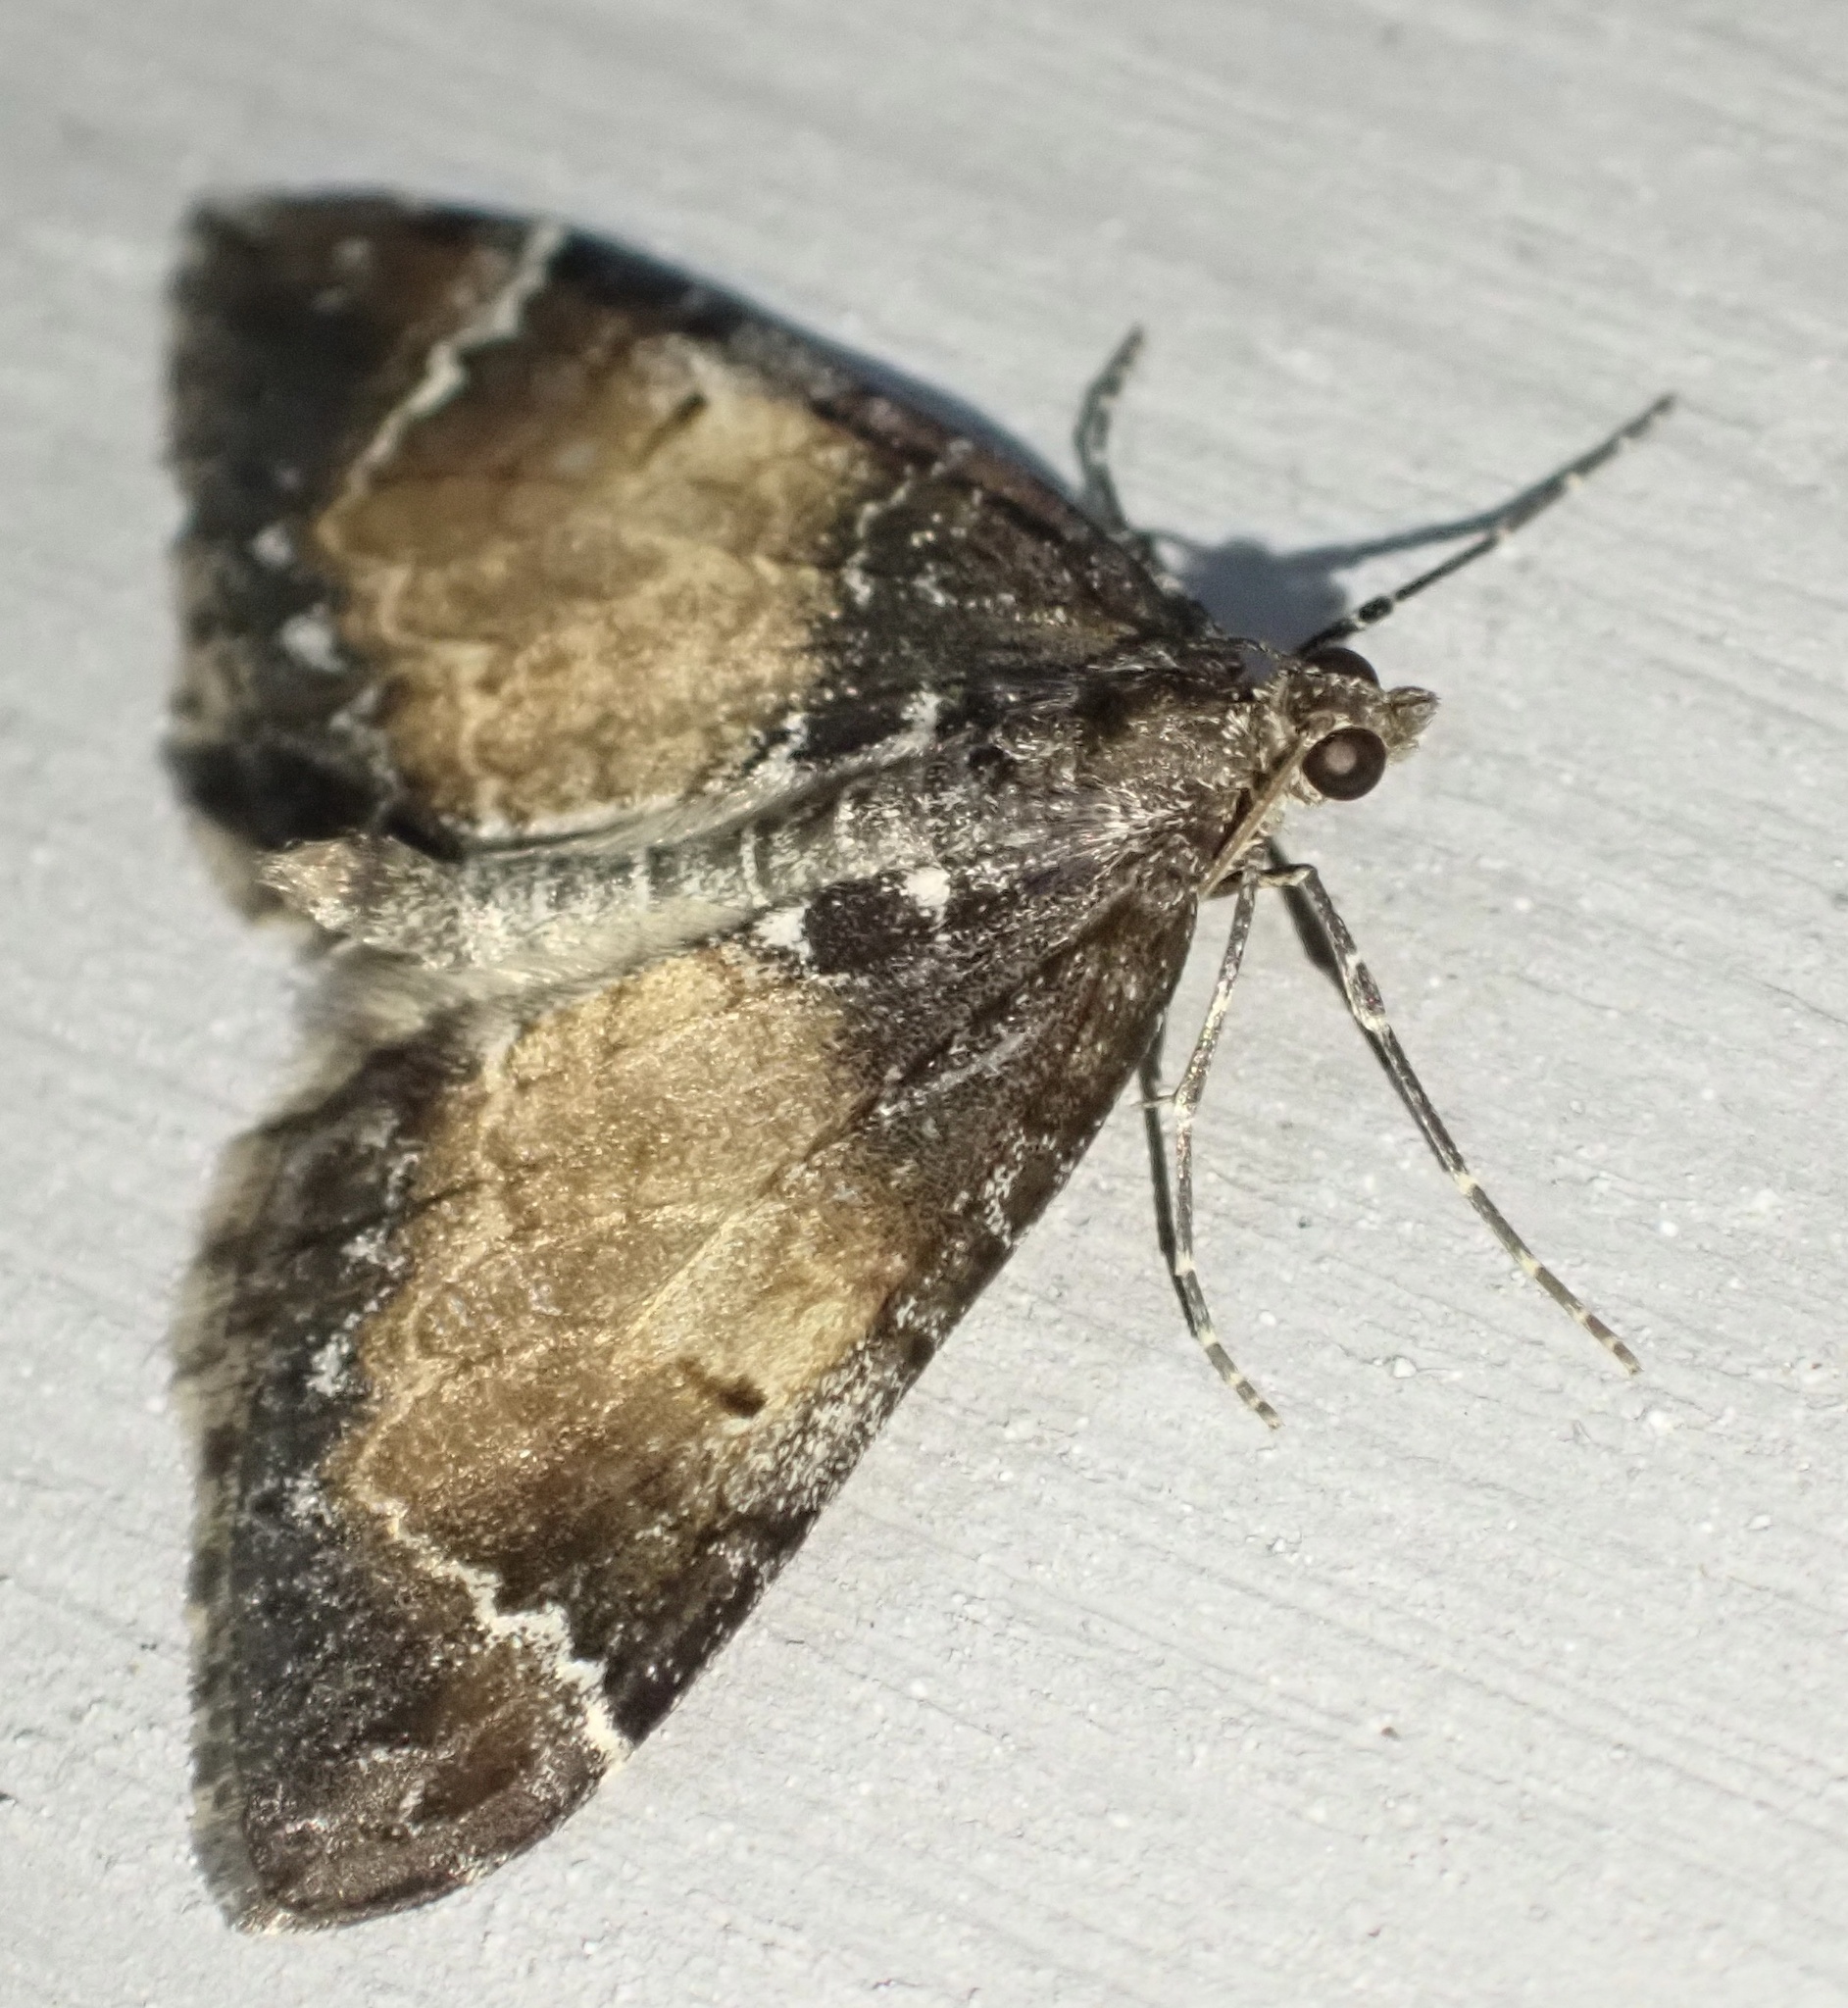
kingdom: Animalia
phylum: Arthropoda
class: Insecta
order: Lepidoptera
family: Geometridae
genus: Dysstroma
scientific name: Dysstroma truncata
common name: Common marbled carpet
